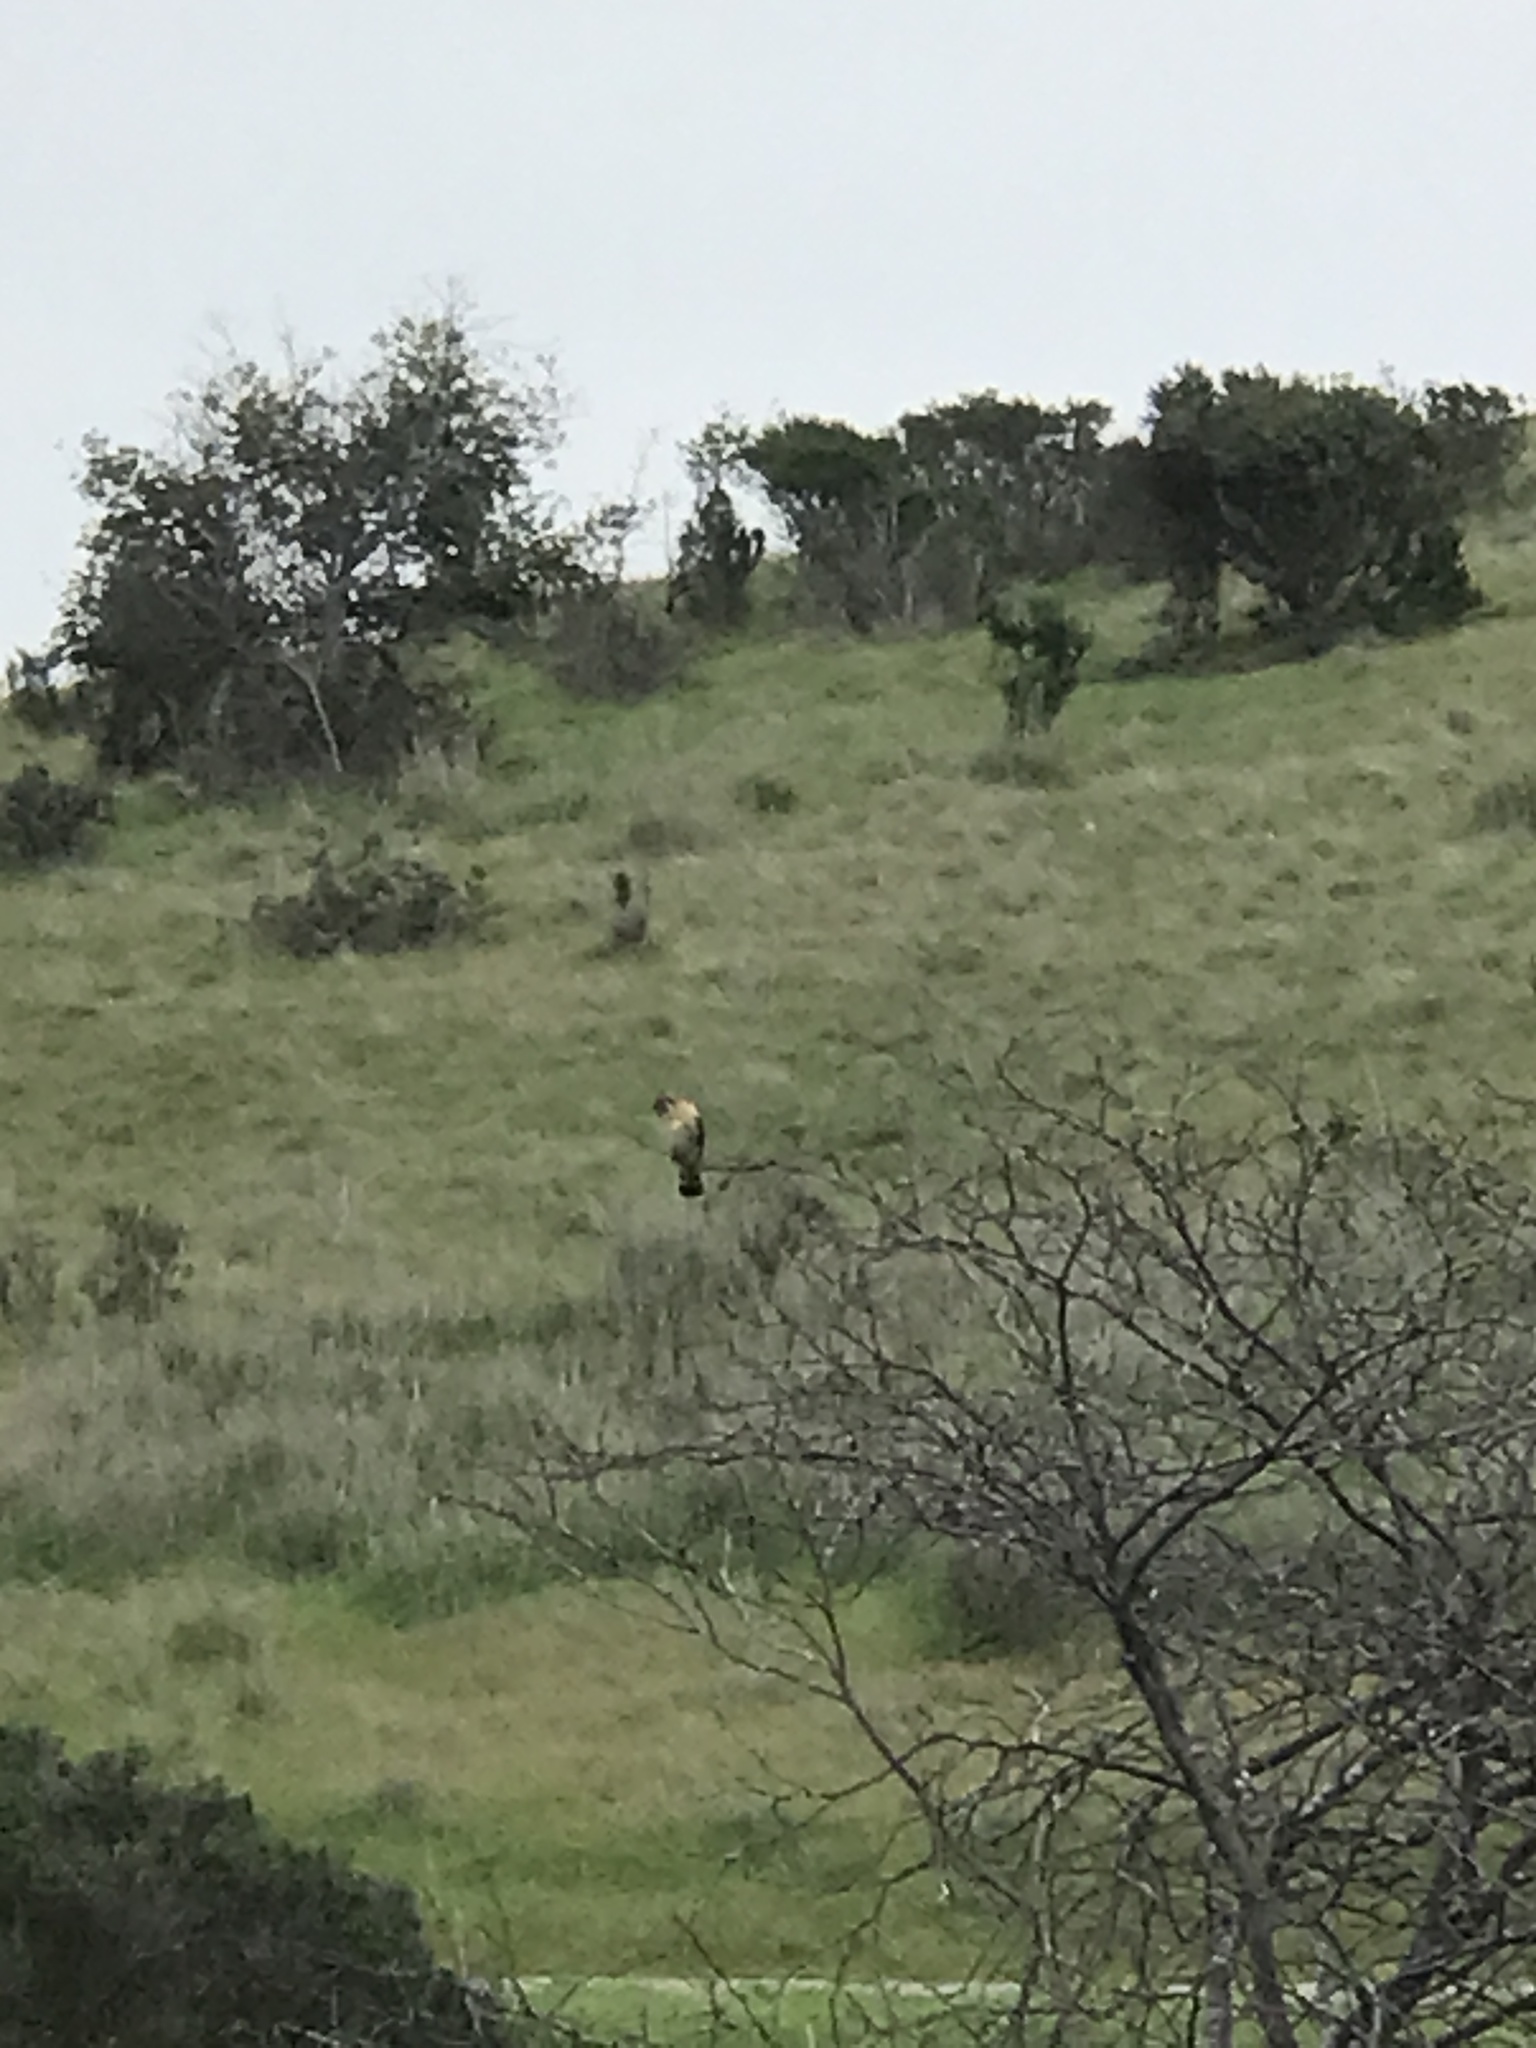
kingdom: Animalia
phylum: Chordata
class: Aves
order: Falconiformes
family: Falconidae
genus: Falco
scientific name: Falco sparverius
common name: American kestrel
